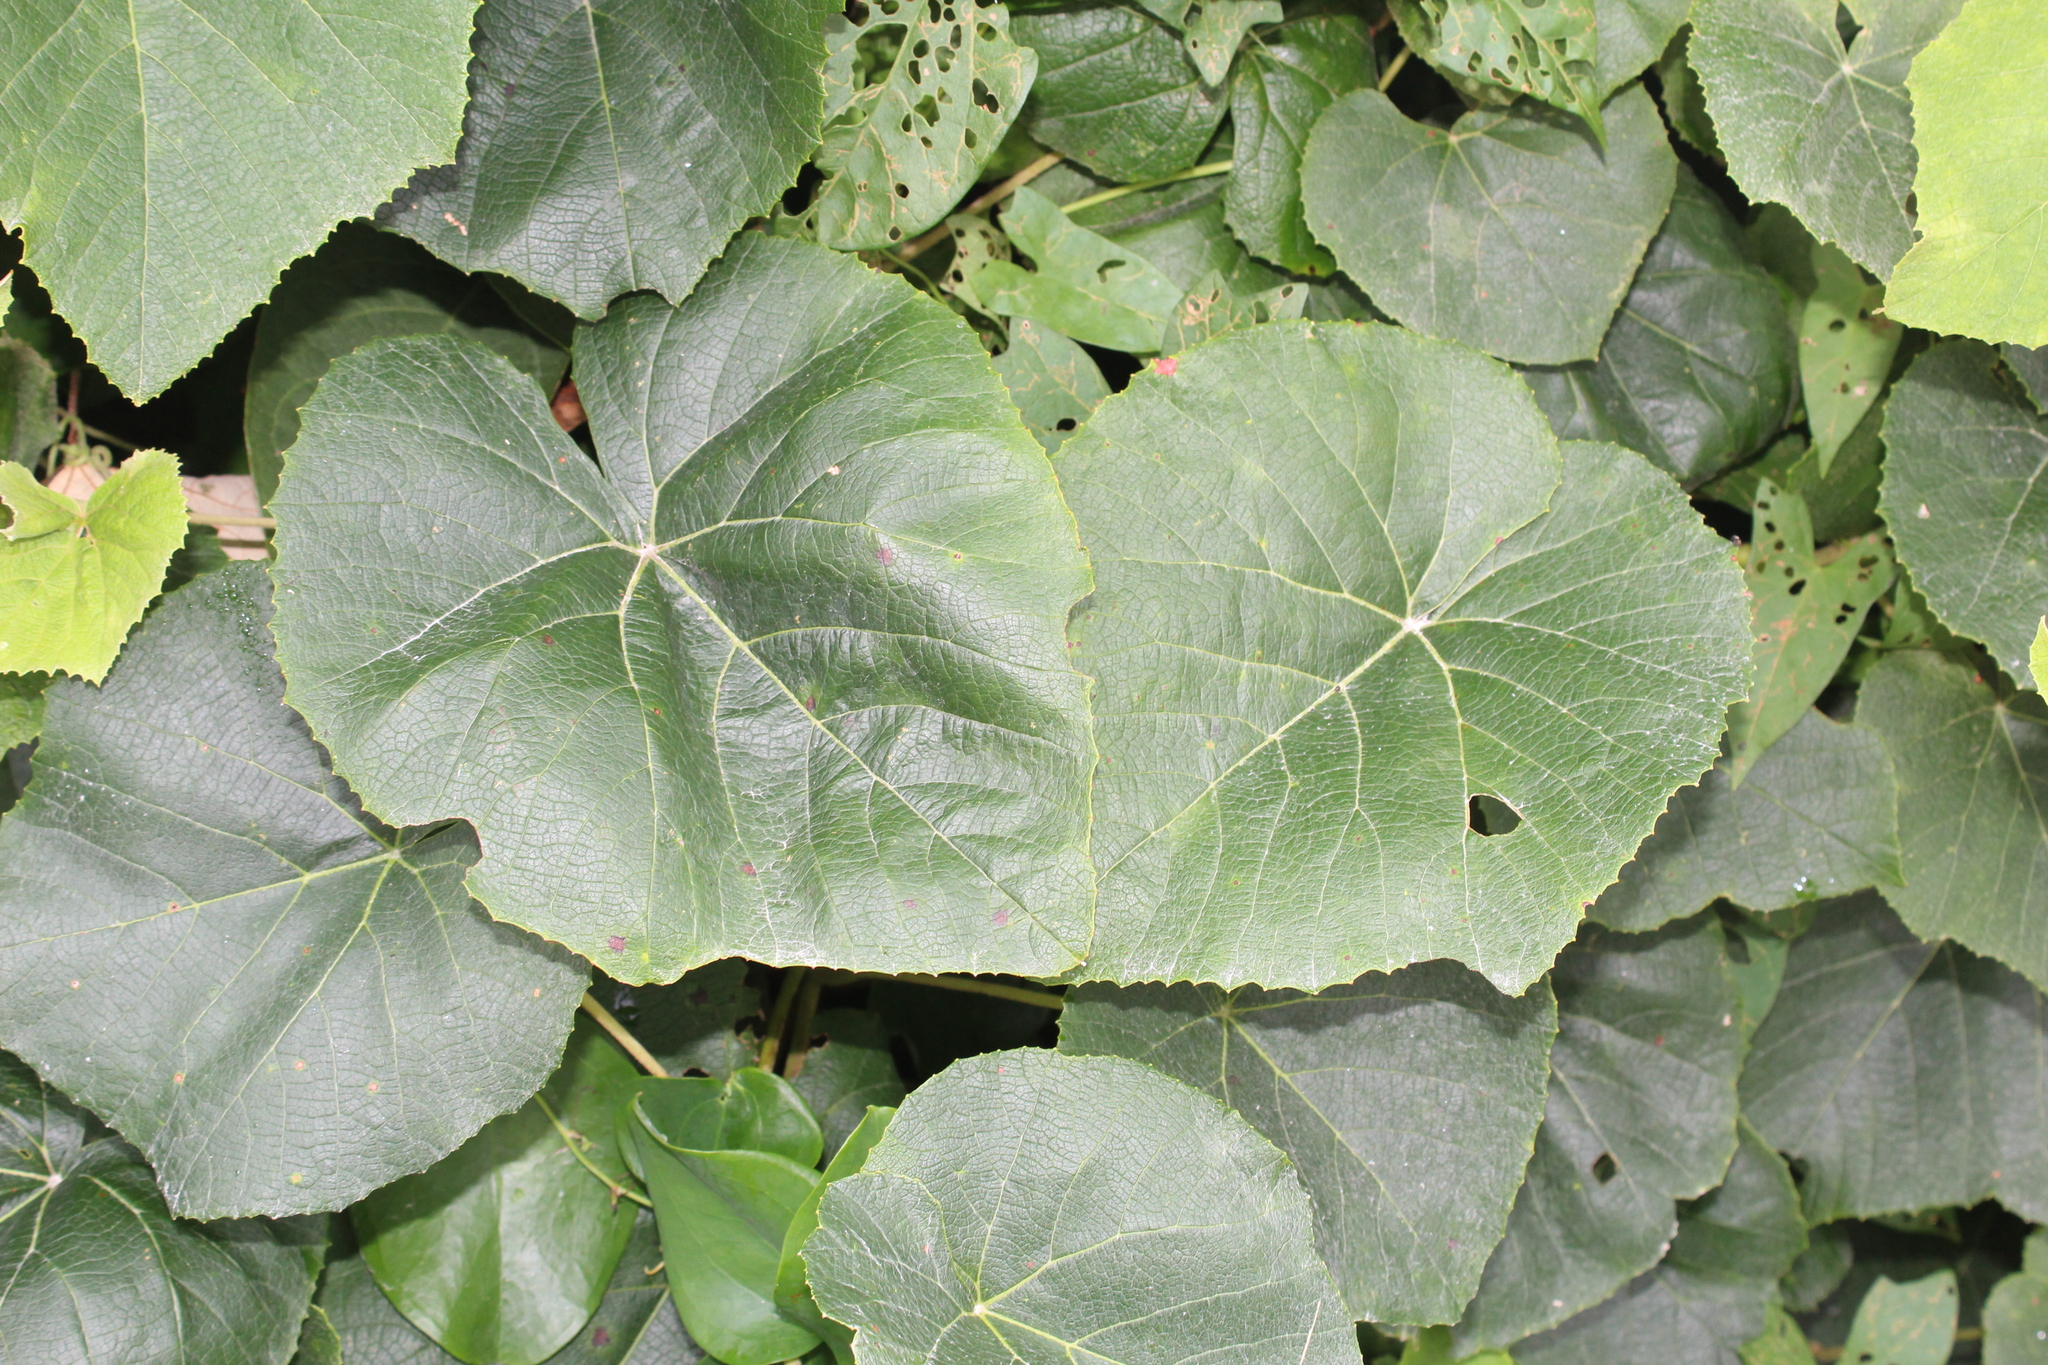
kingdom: Plantae
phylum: Tracheophyta
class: Magnoliopsida
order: Vitales
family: Vitaceae
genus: Vitis
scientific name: Vitis labrusca
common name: Concord grape
